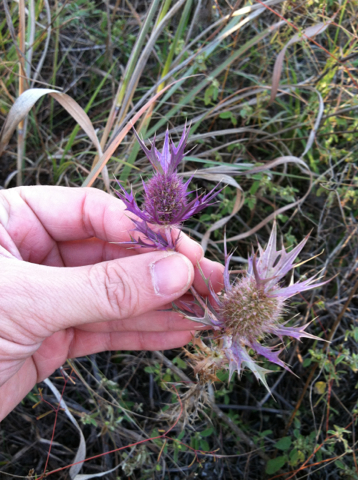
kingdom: Plantae
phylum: Tracheophyta
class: Magnoliopsida
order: Apiales
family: Apiaceae
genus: Eryngium
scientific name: Eryngium leavenworthii
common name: Leavenworth's eryngo
